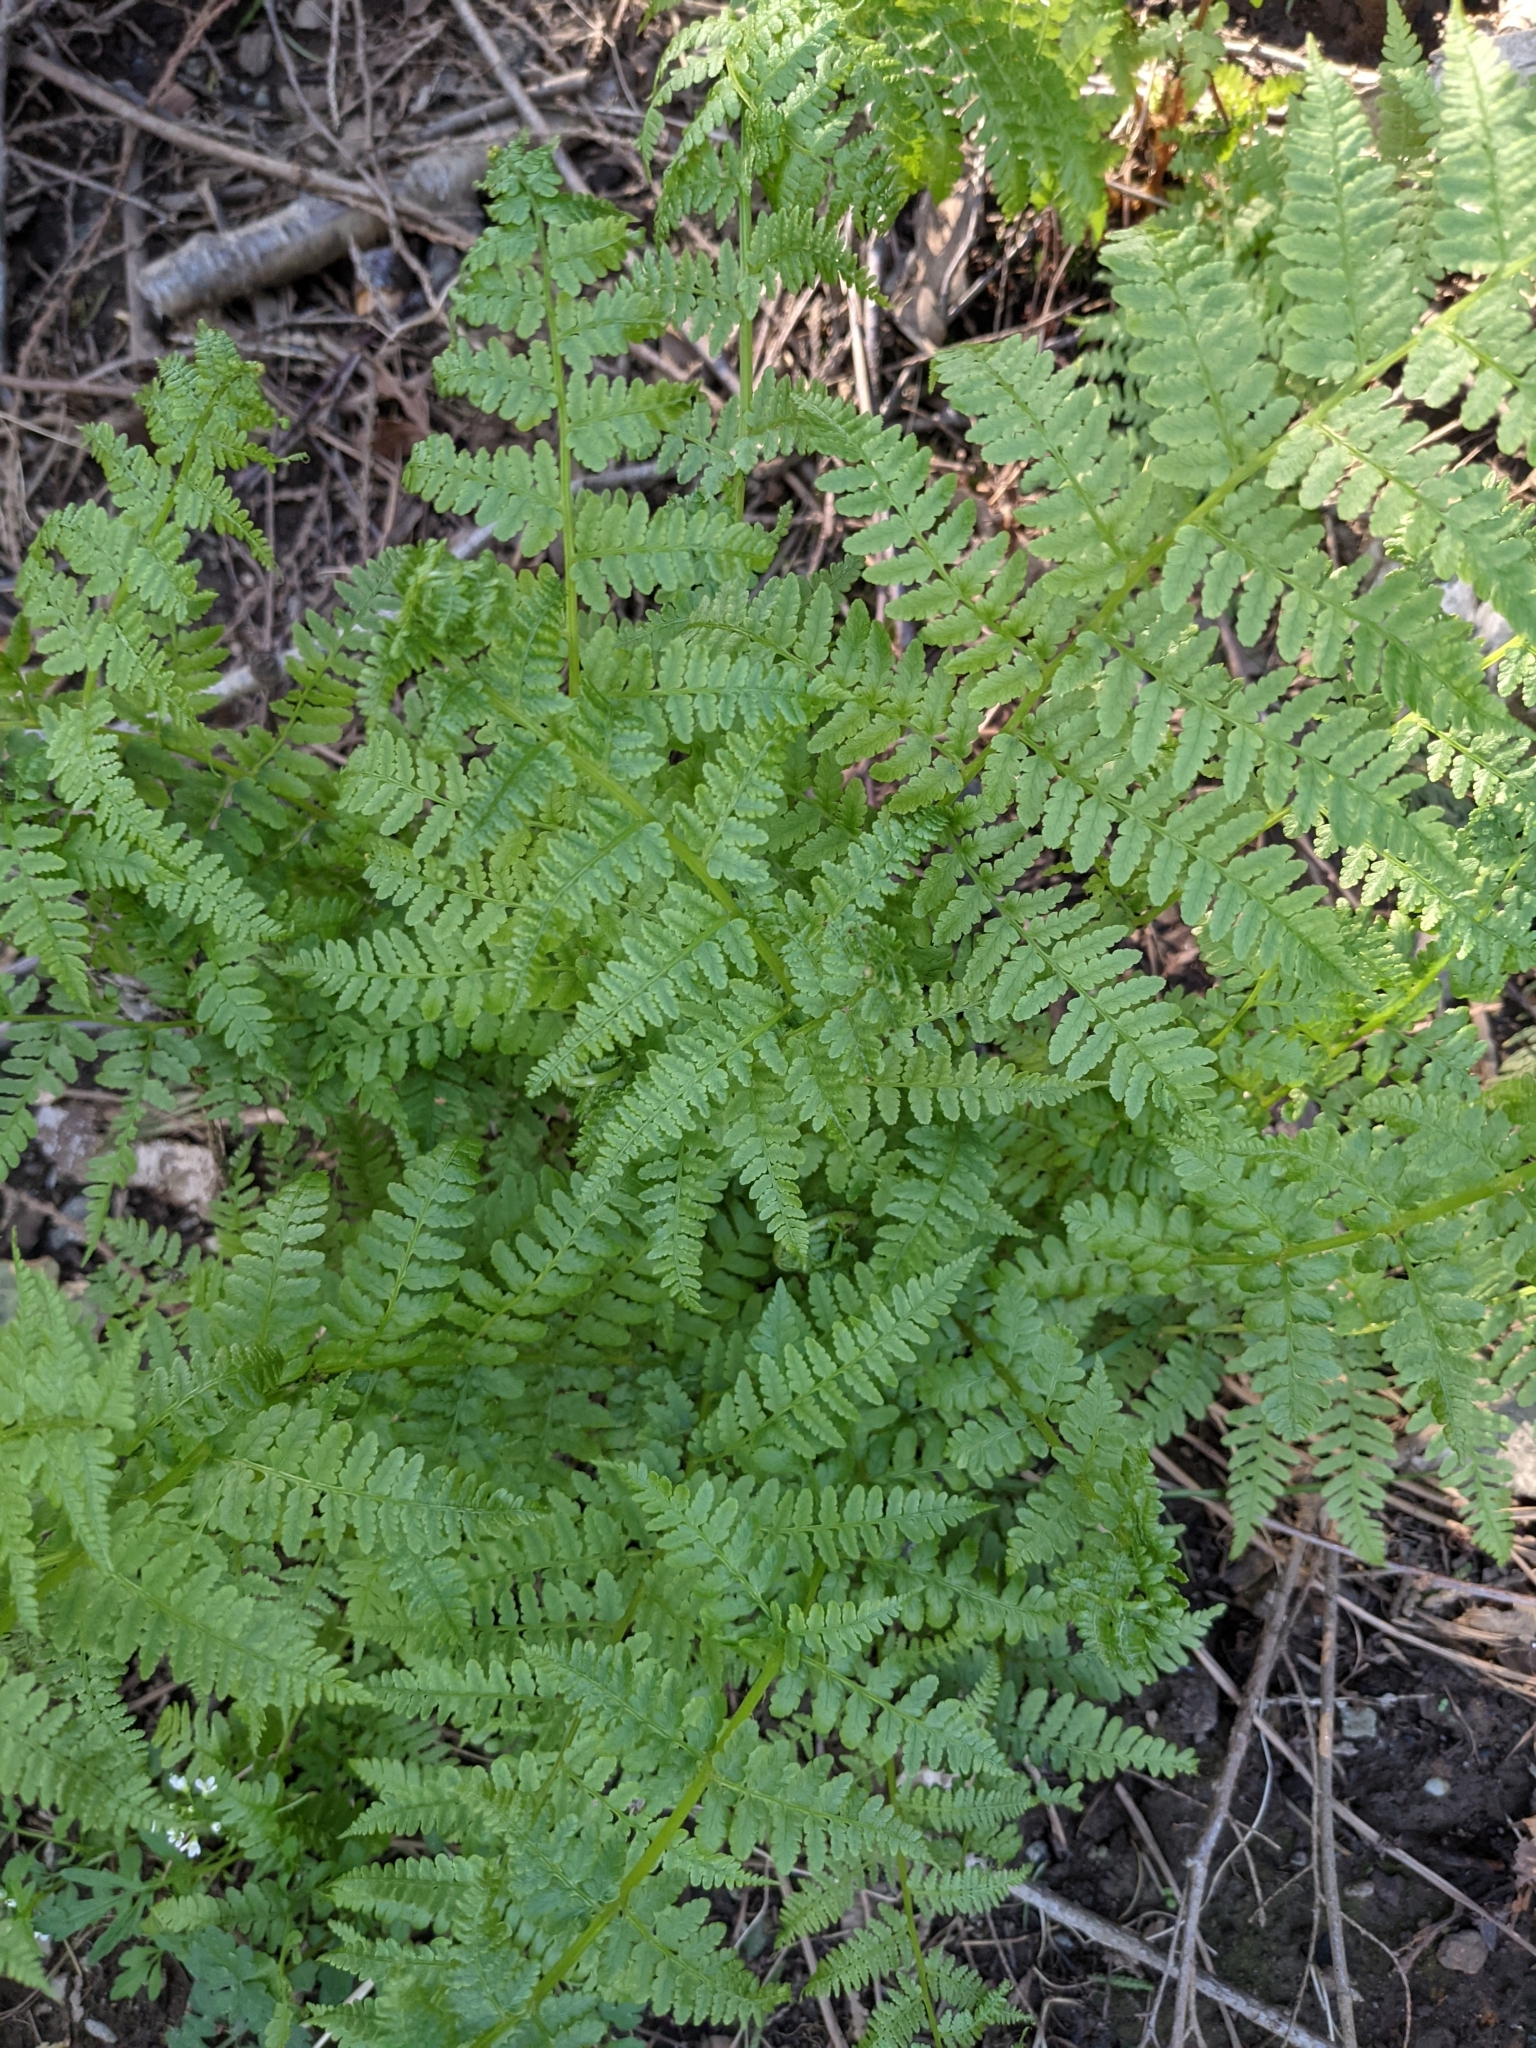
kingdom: Plantae
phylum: Tracheophyta
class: Polypodiopsida
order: Polypodiales
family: Athyriaceae
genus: Athyrium
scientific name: Athyrium filix-femina
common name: Lady fern
